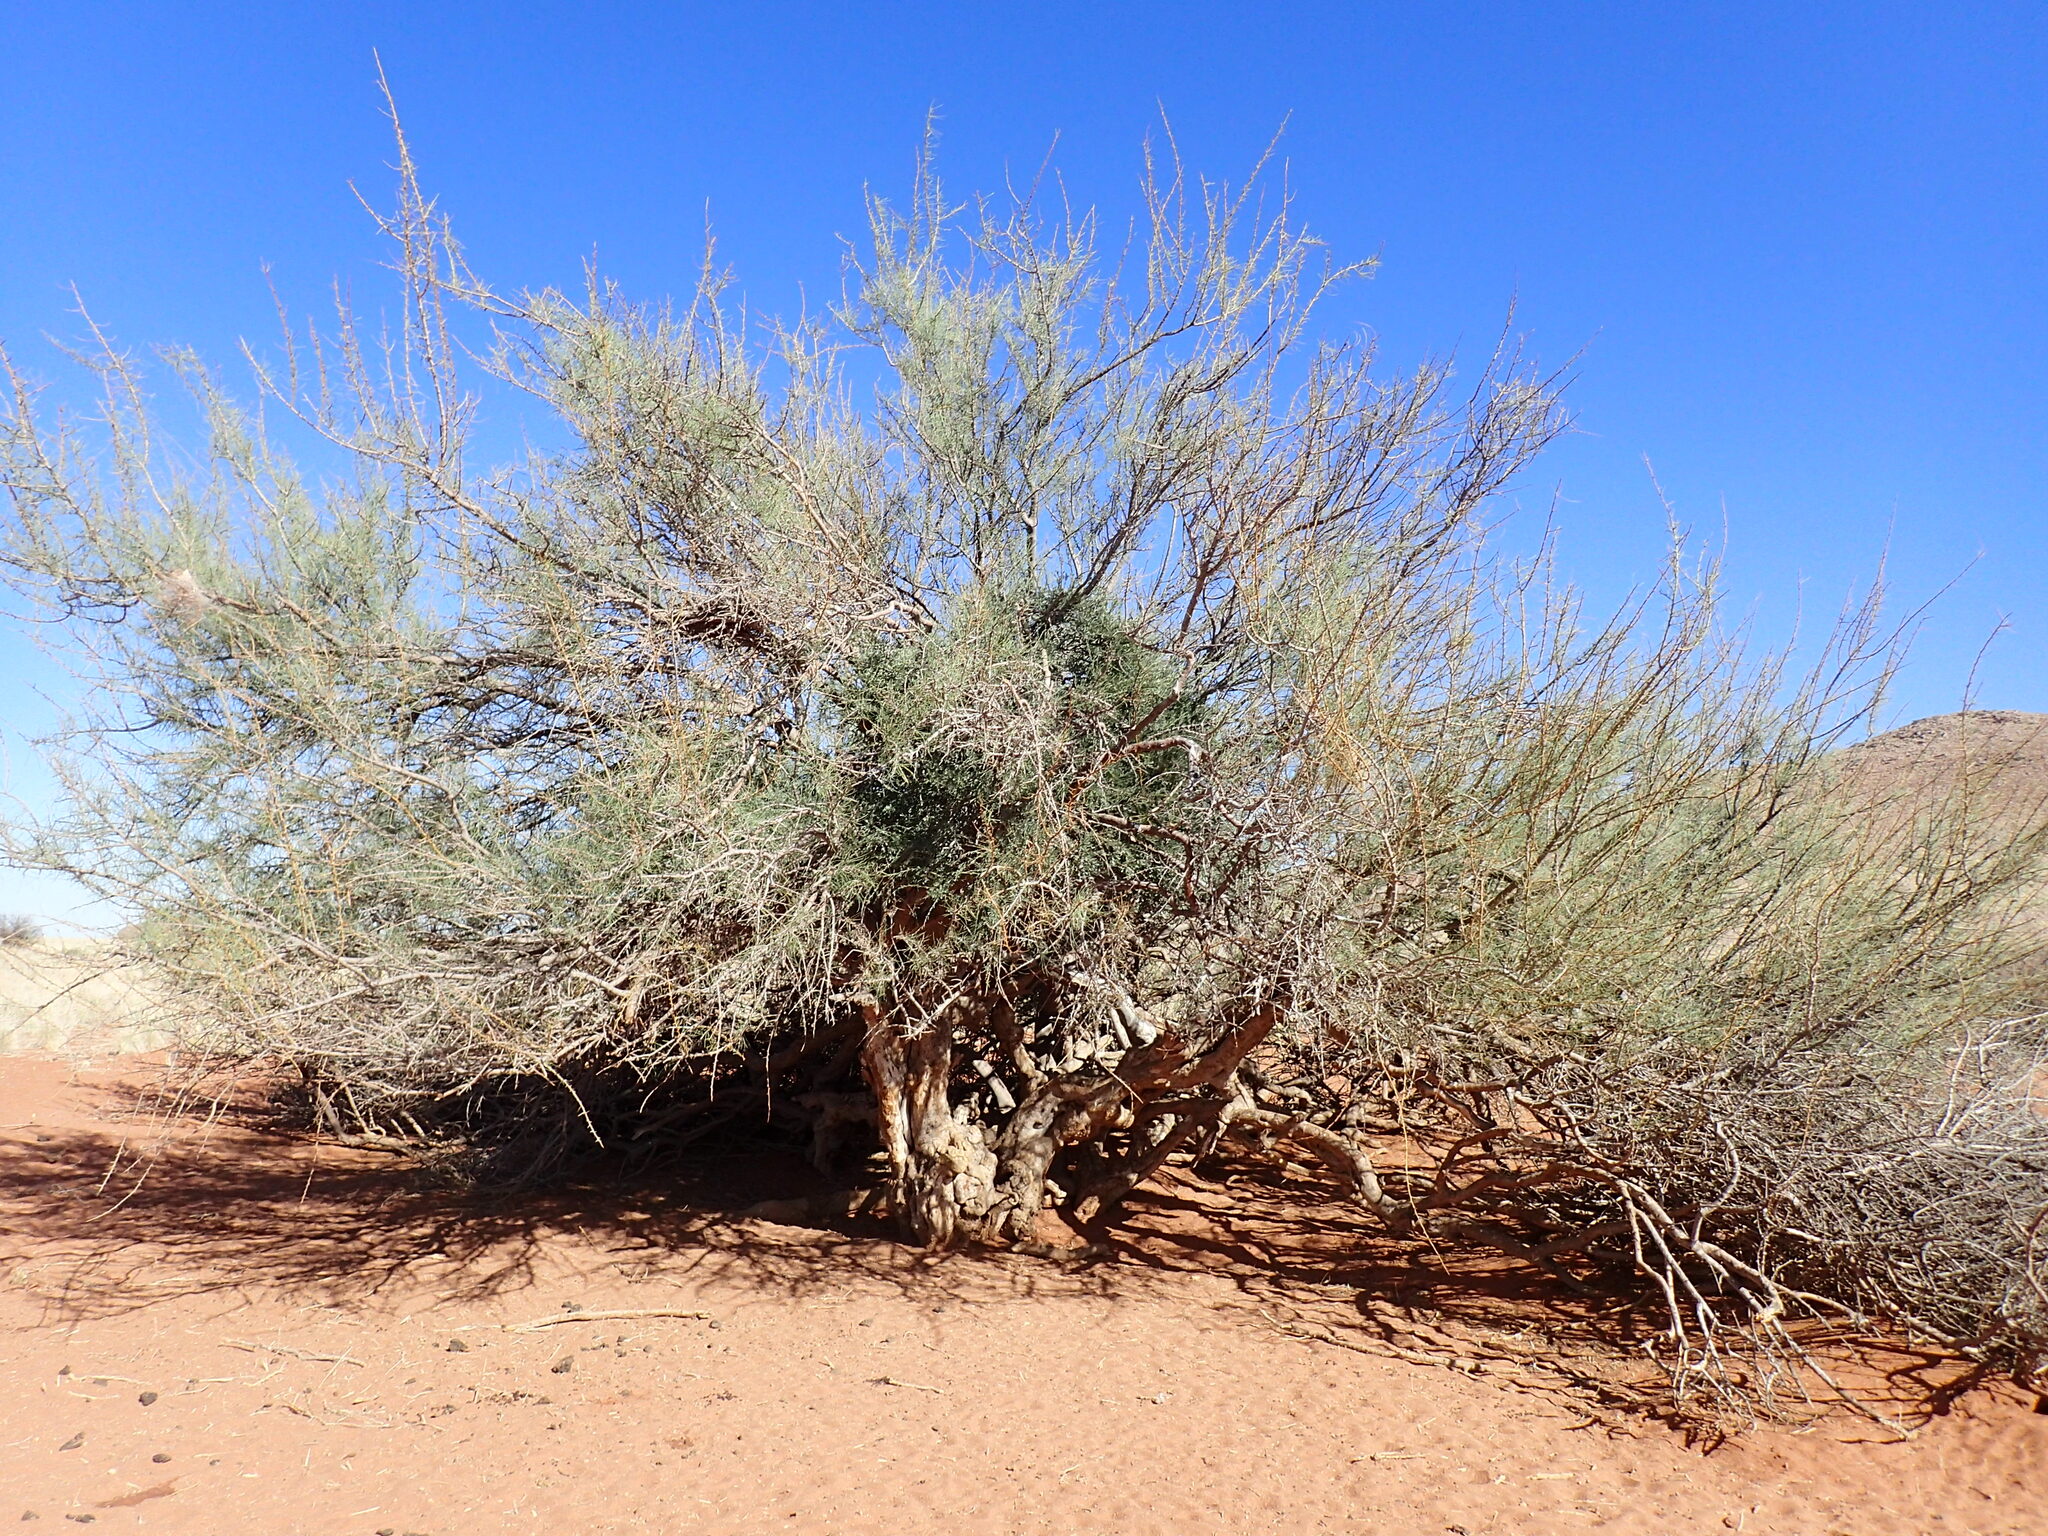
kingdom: Plantae
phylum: Tracheophyta
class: Magnoliopsida
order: Fabales
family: Fabaceae
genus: Parkinsonia
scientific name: Parkinsonia africana
